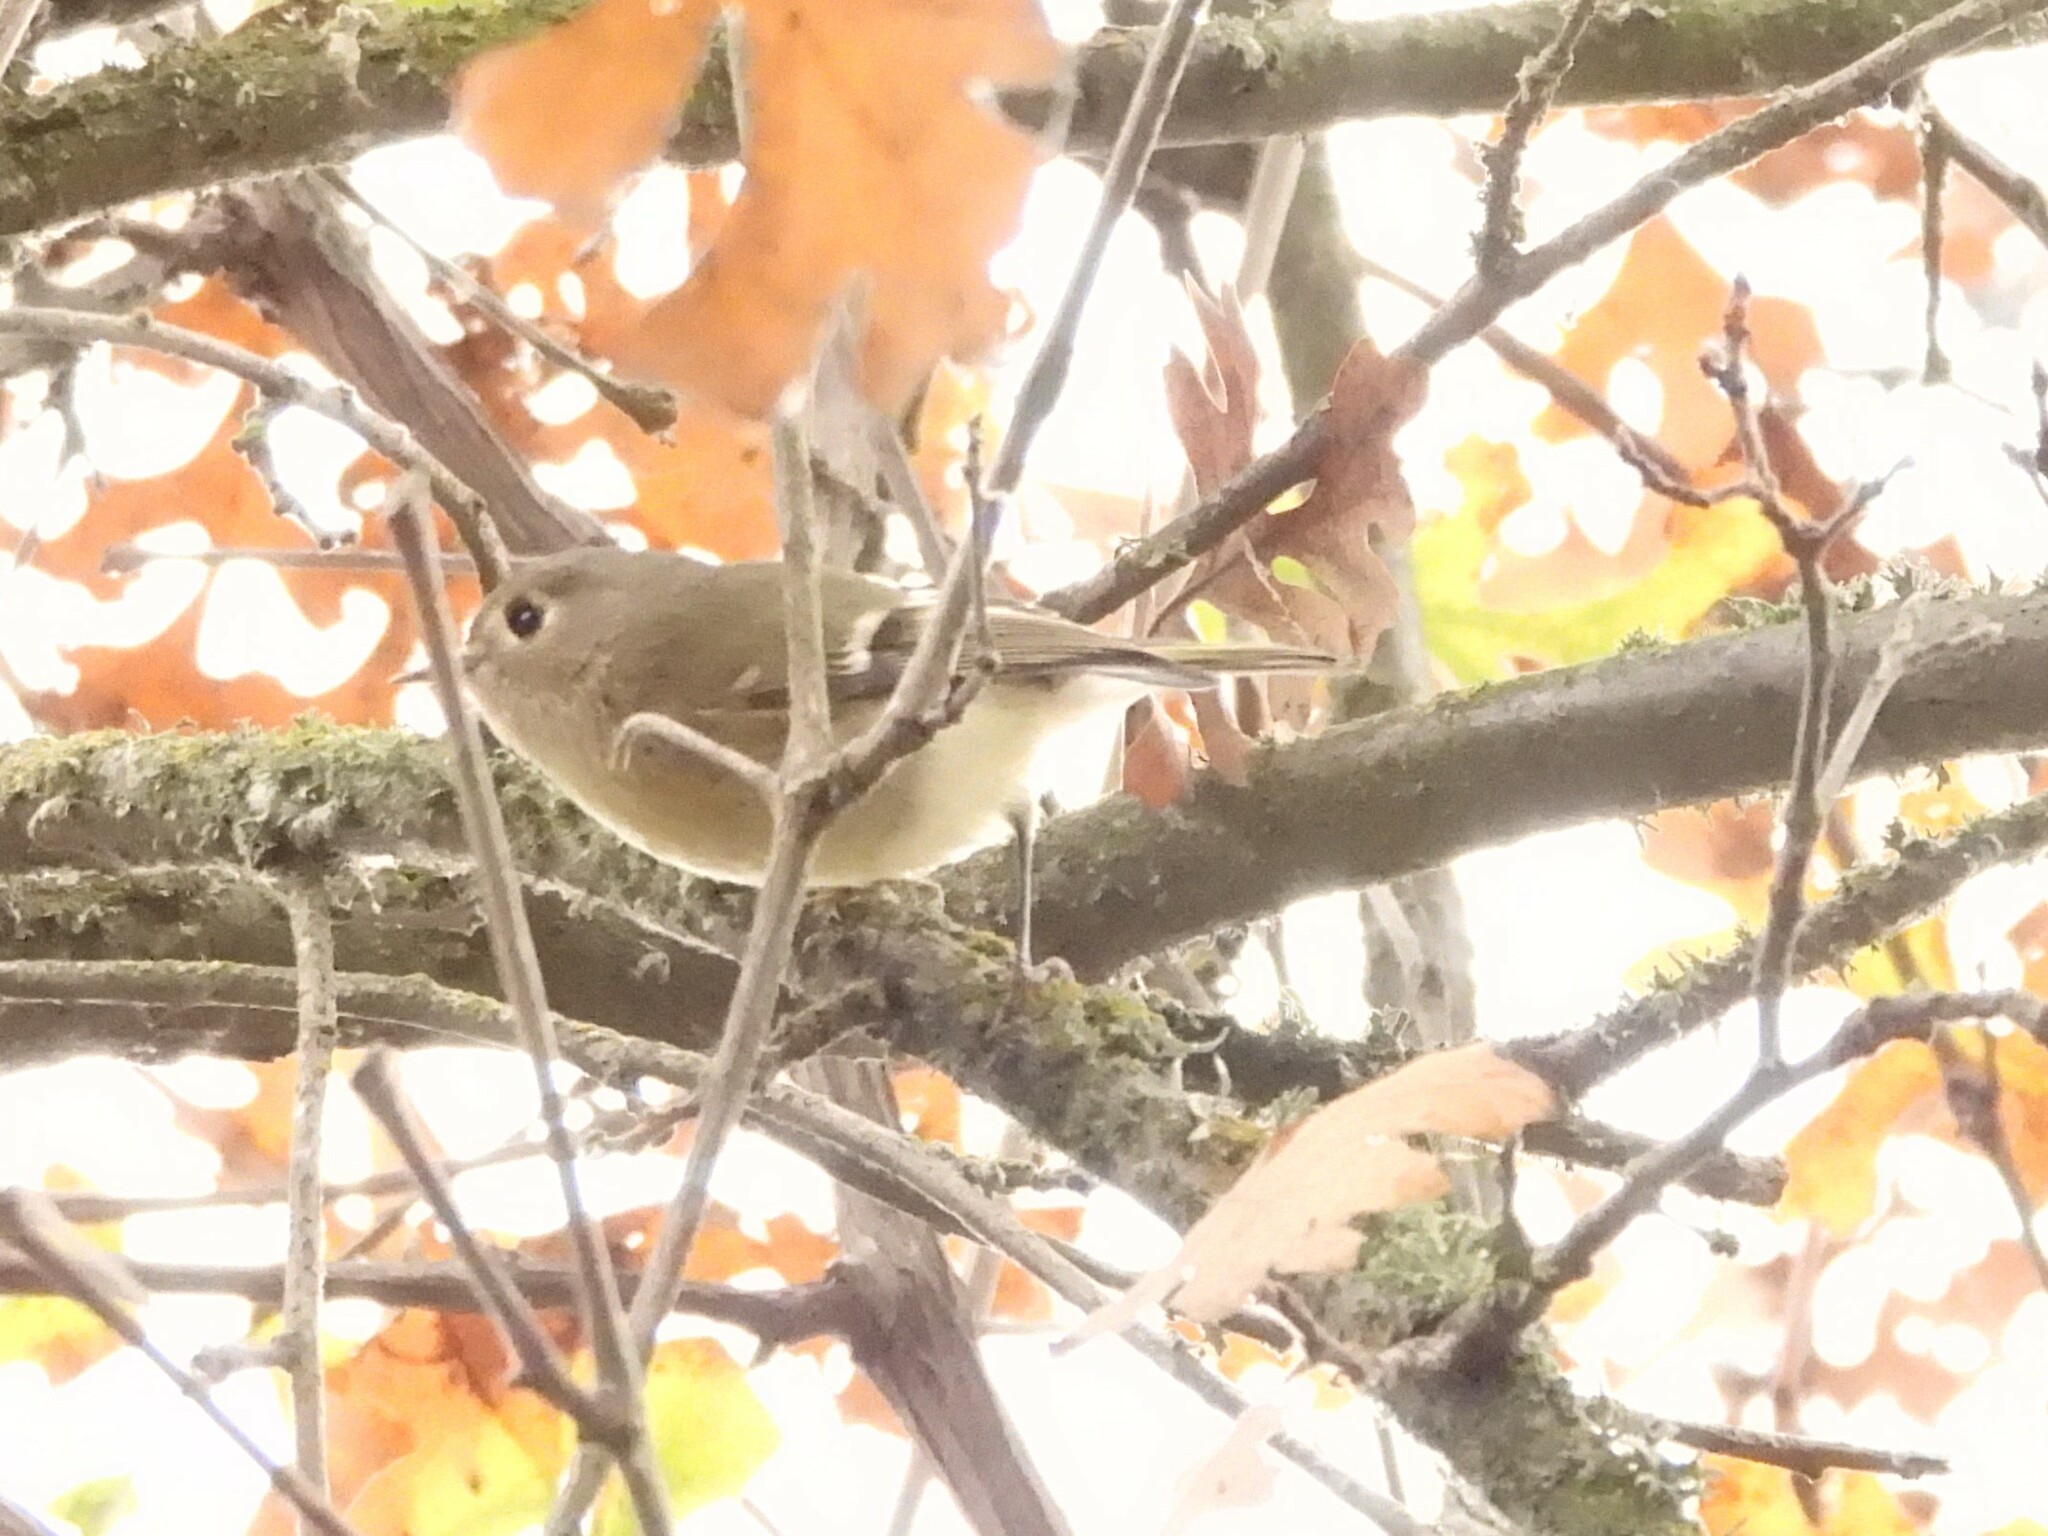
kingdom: Animalia
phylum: Chordata
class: Aves
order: Passeriformes
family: Regulidae
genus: Regulus
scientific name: Regulus calendula
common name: Ruby-crowned kinglet
